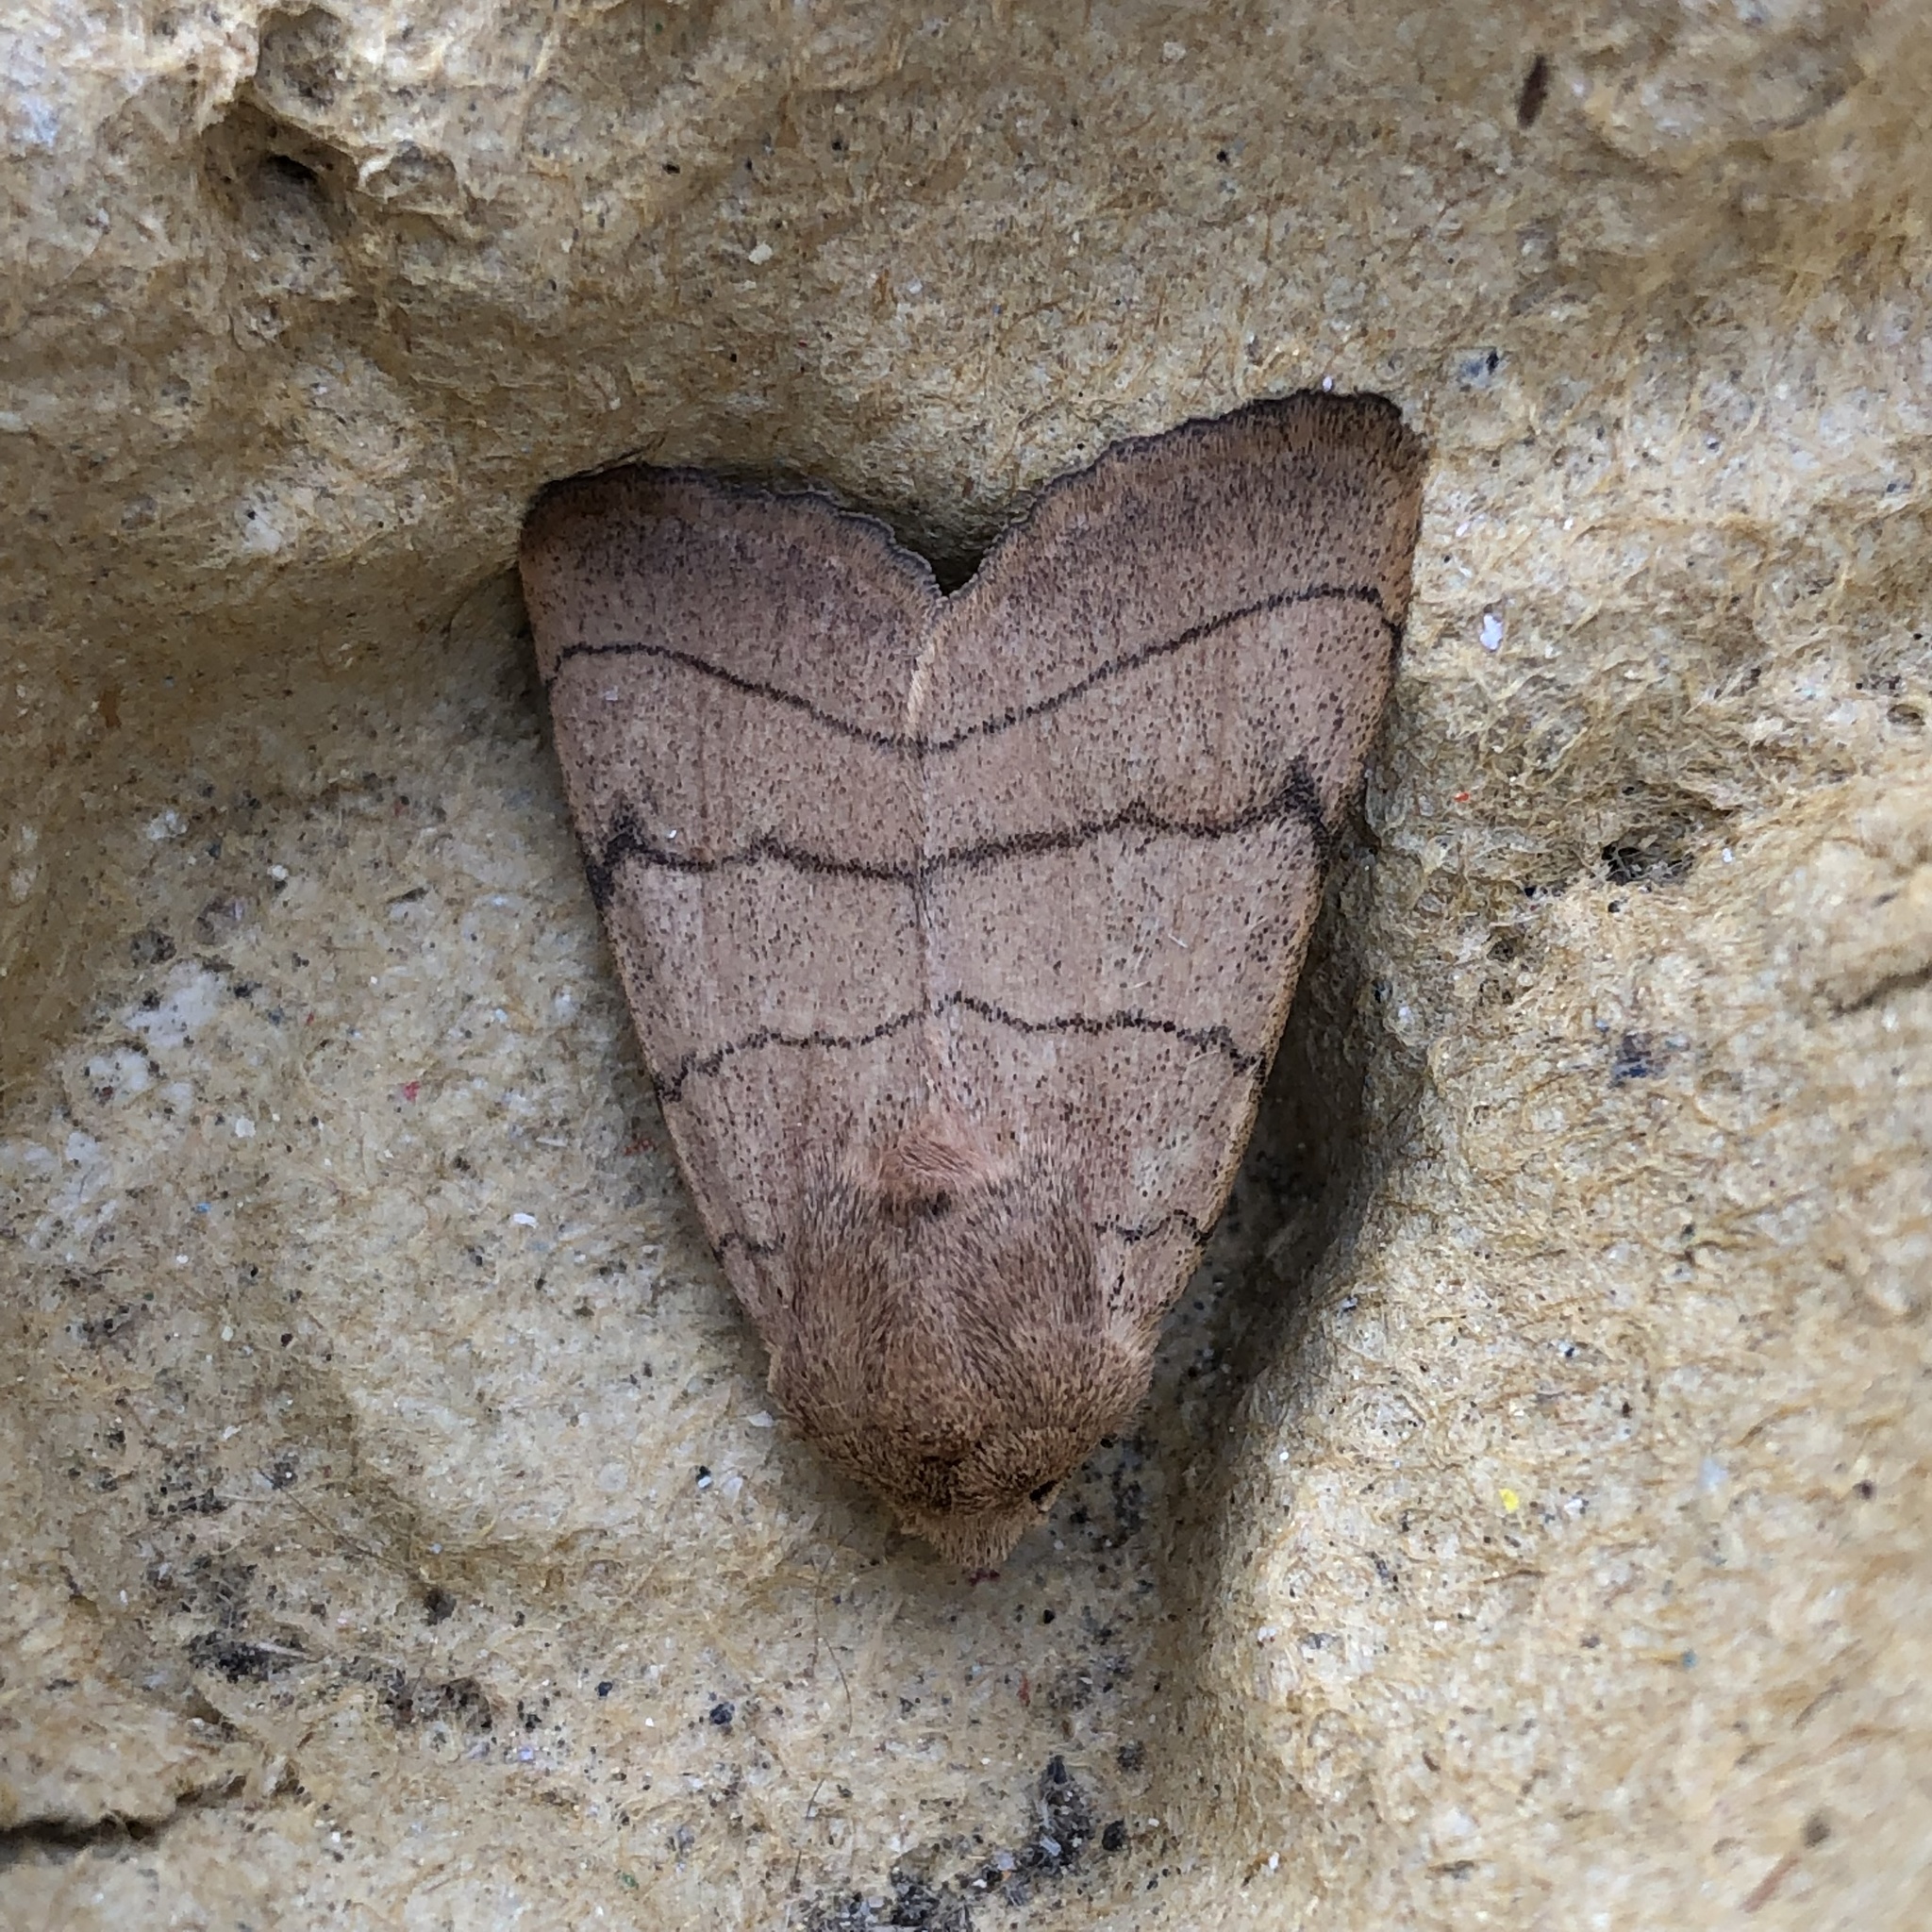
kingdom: Animalia
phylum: Arthropoda
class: Insecta
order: Lepidoptera
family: Noctuidae
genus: Charanyca
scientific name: Charanyca trigrammica
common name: Treble lines
